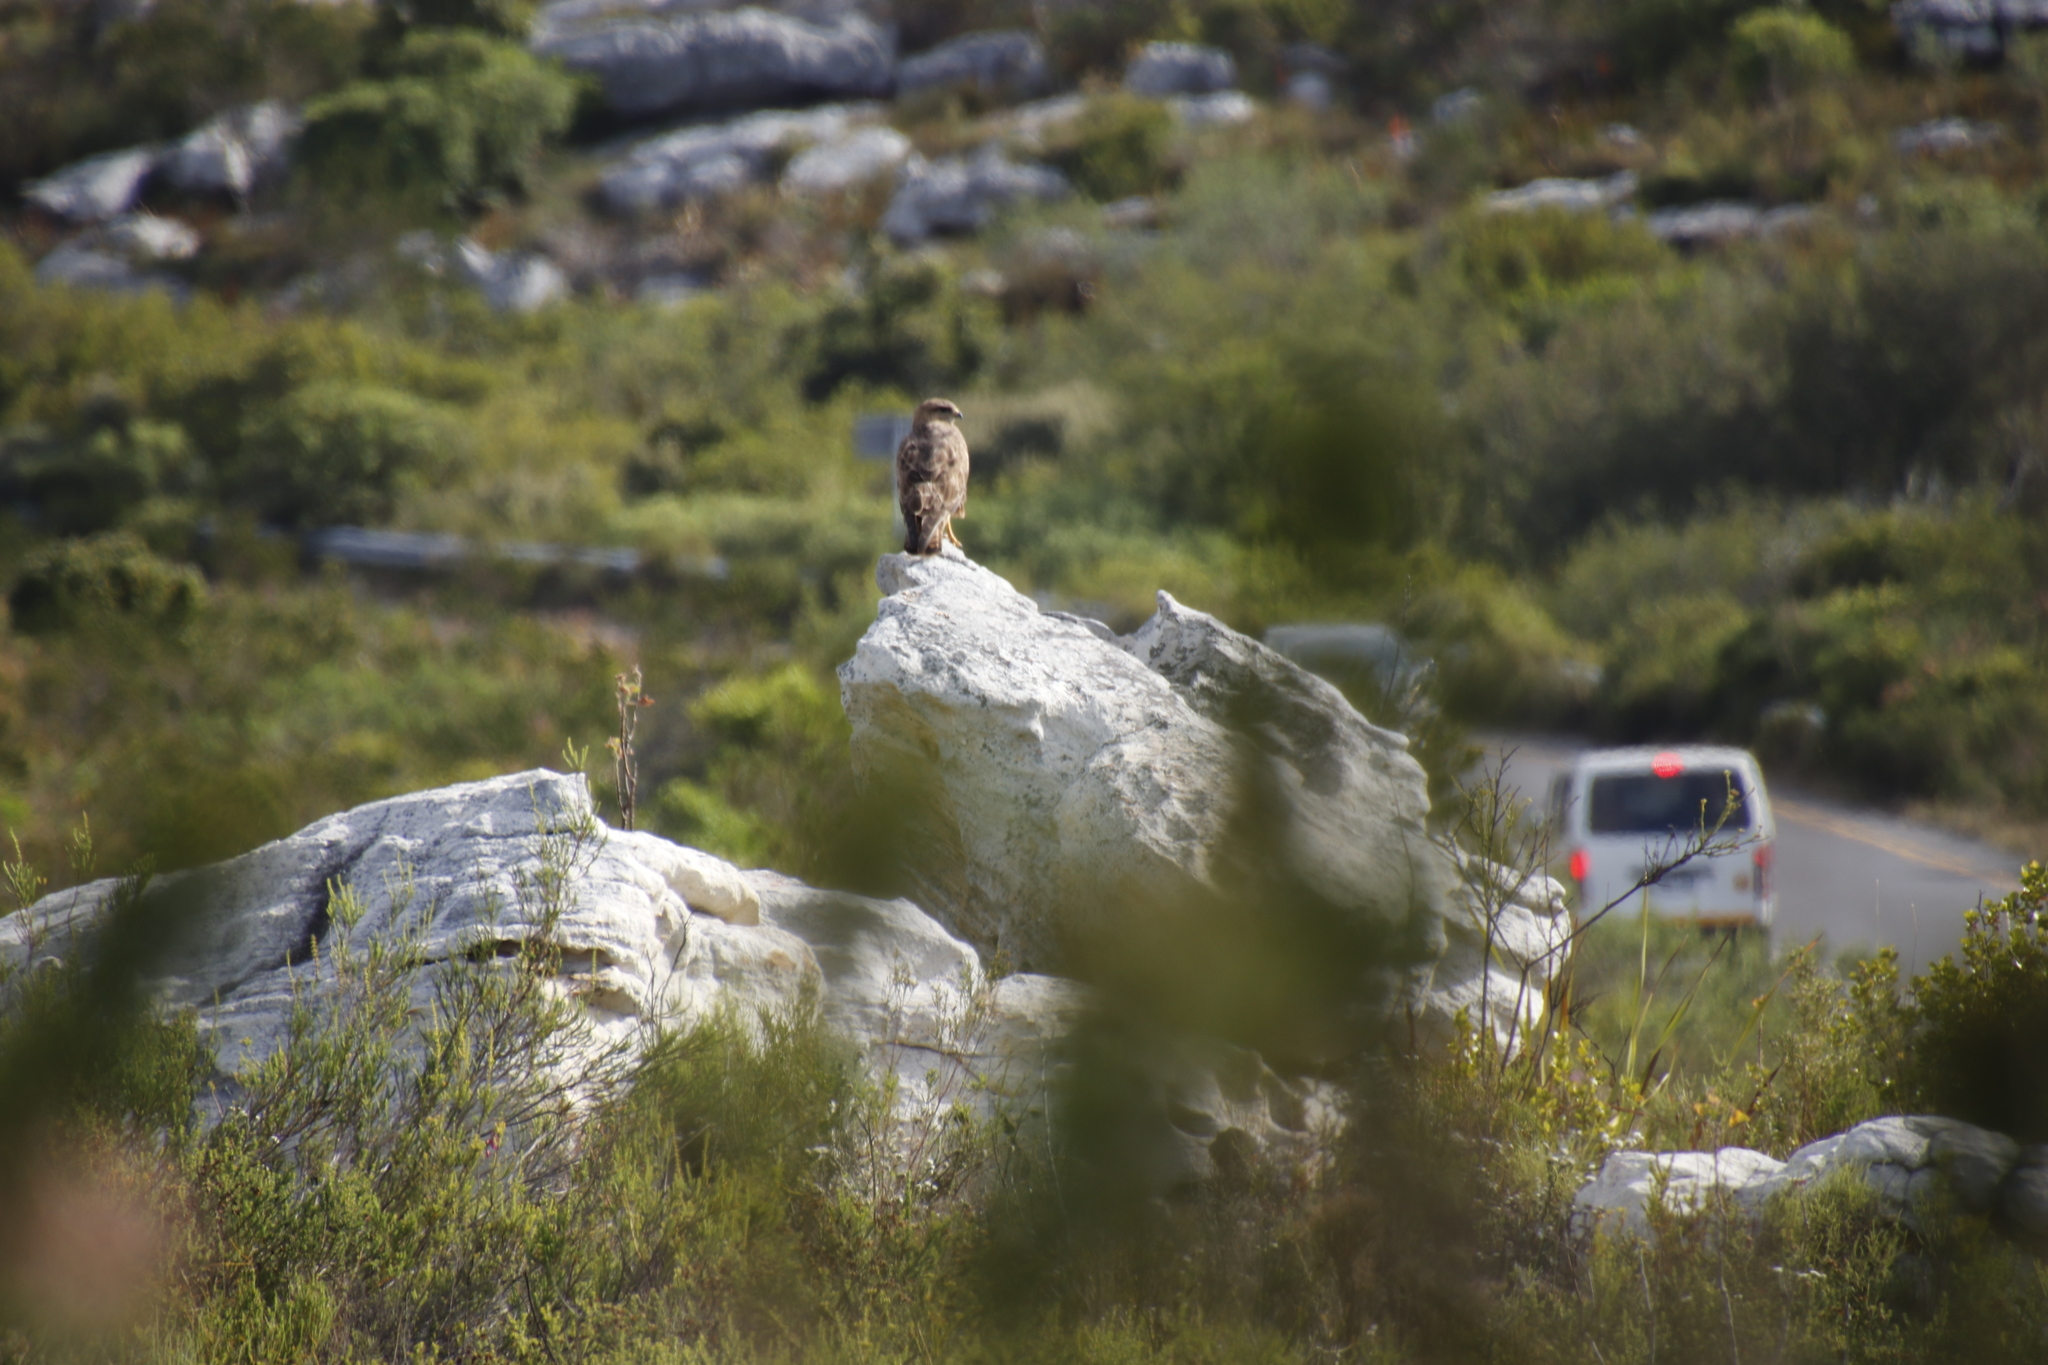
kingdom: Animalia
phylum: Chordata
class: Aves
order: Accipitriformes
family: Accipitridae
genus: Buteo
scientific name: Buteo rufofuscus
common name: Jackal buzzard
